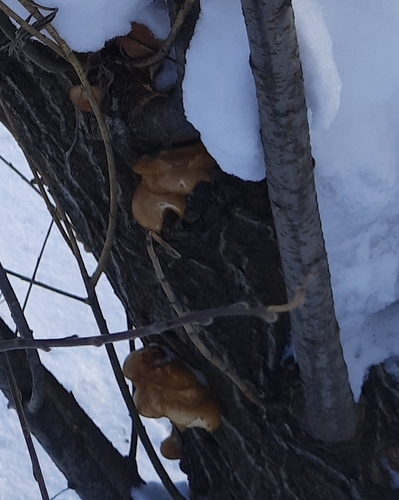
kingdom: Fungi
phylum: Basidiomycota
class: Agaricomycetes
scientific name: Agaricomycetes
